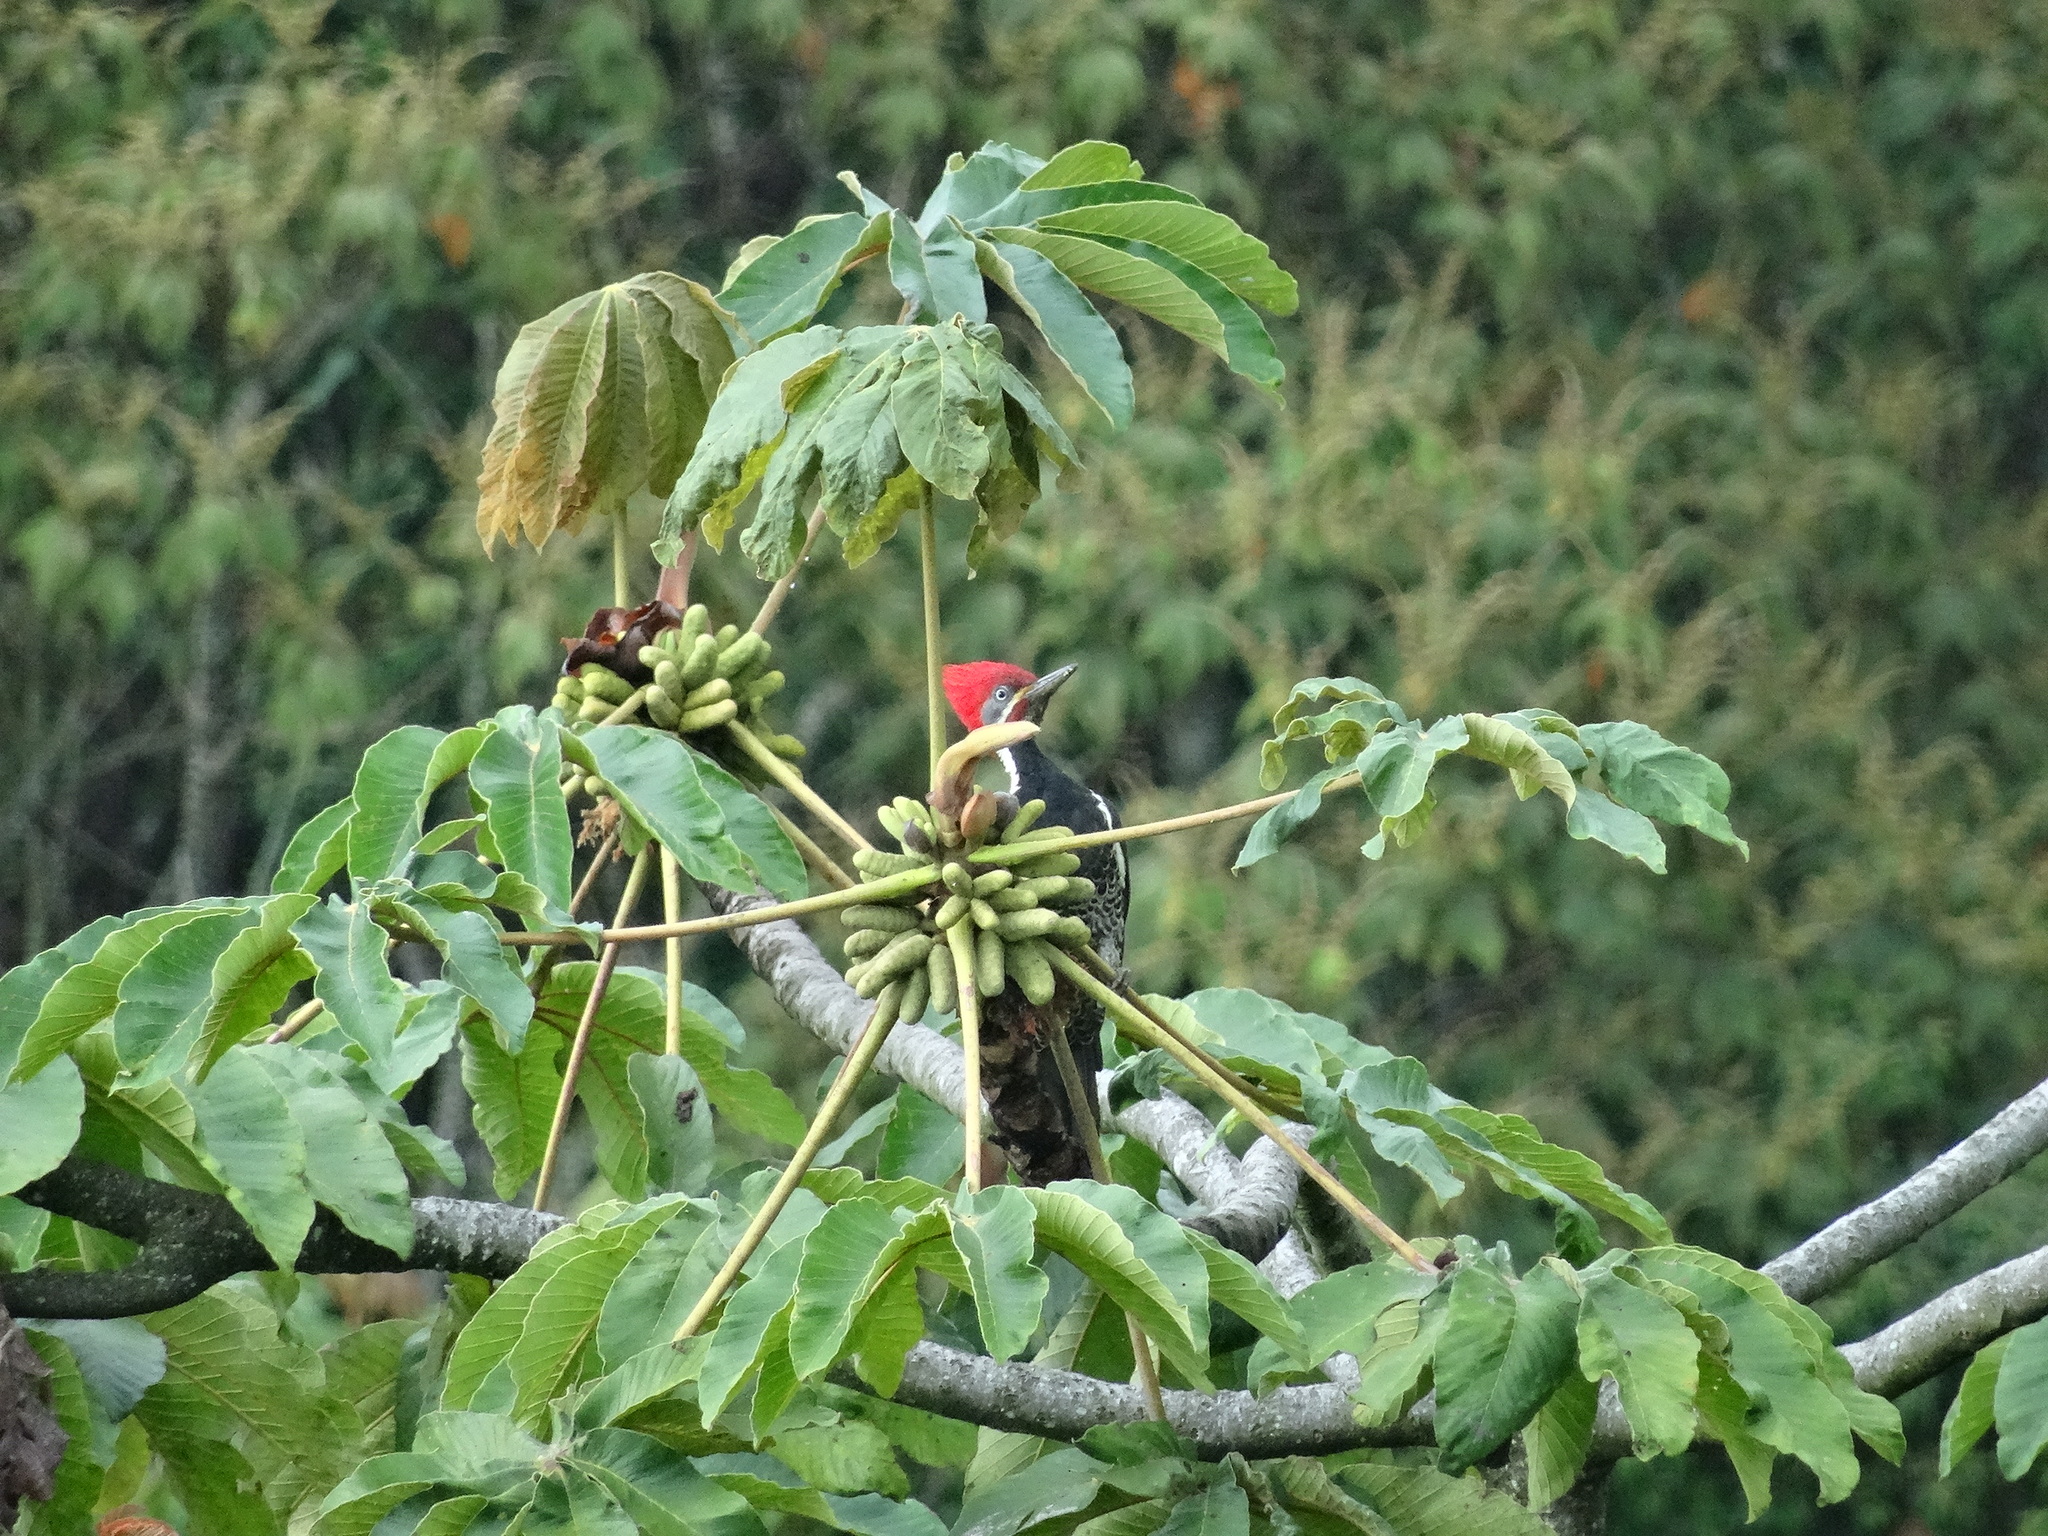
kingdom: Animalia
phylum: Chordata
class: Aves
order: Piciformes
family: Picidae
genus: Dryocopus
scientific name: Dryocopus lineatus
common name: Lineated woodpecker
